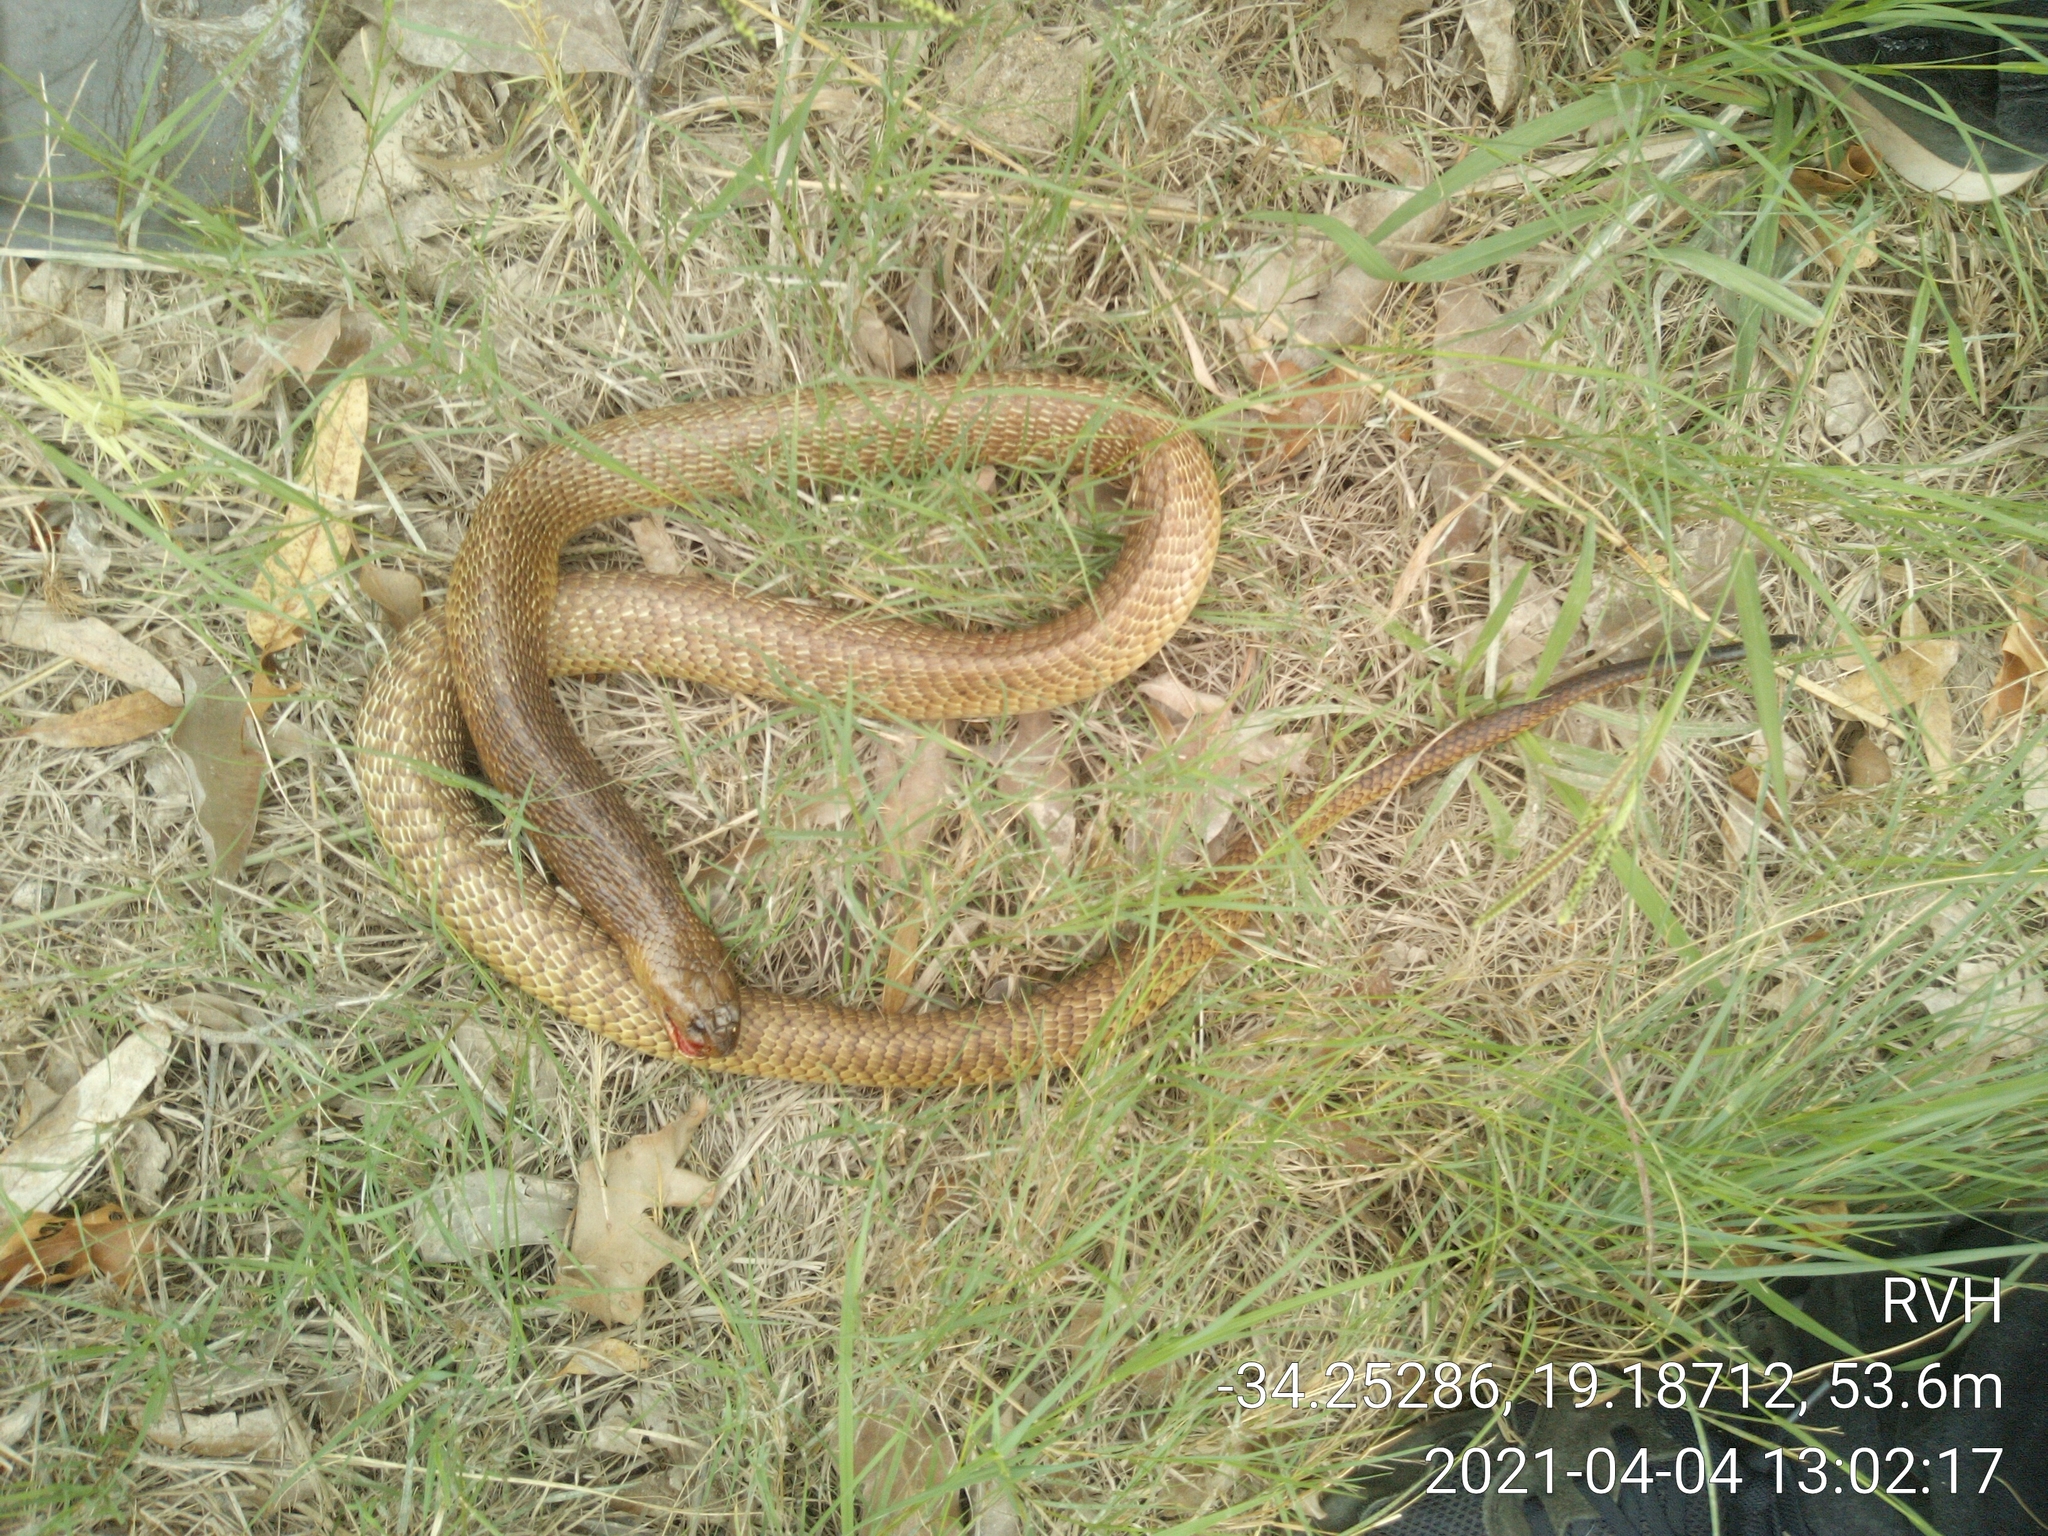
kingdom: Animalia
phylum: Chordata
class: Squamata
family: Elapidae
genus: Naja
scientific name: Naja nivea
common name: Cape cobra
